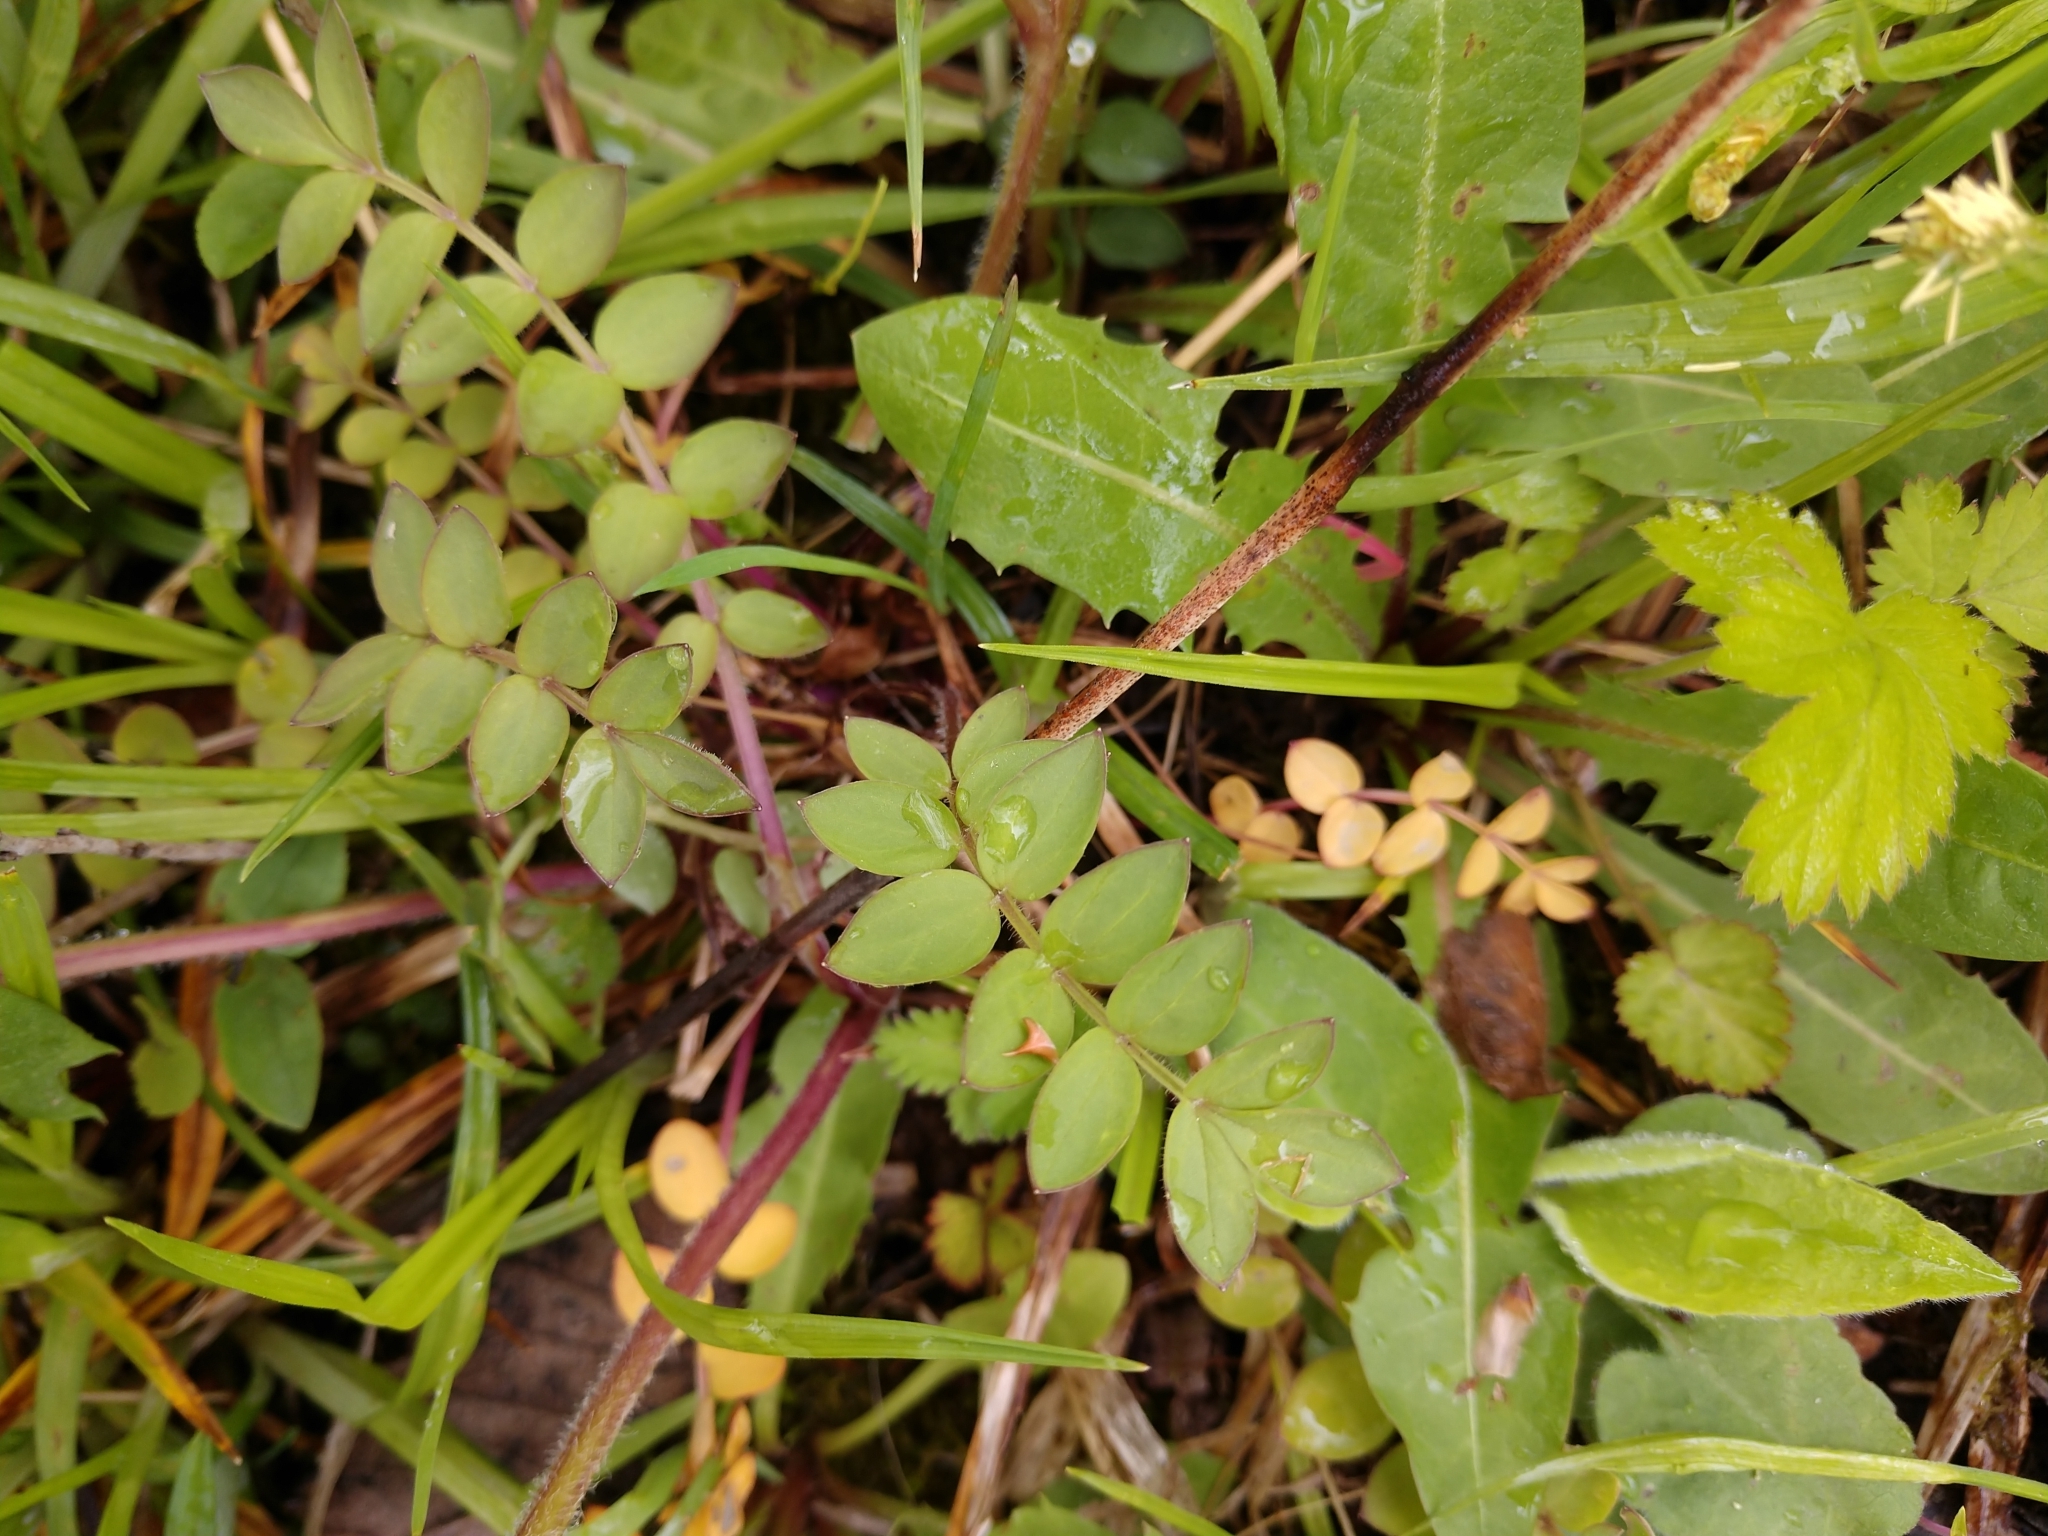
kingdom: Plantae
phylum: Tracheophyta
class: Magnoliopsida
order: Ericales
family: Polemoniaceae
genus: Polemonium
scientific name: Polemonium reptans
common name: Creeping jacob's-ladder
